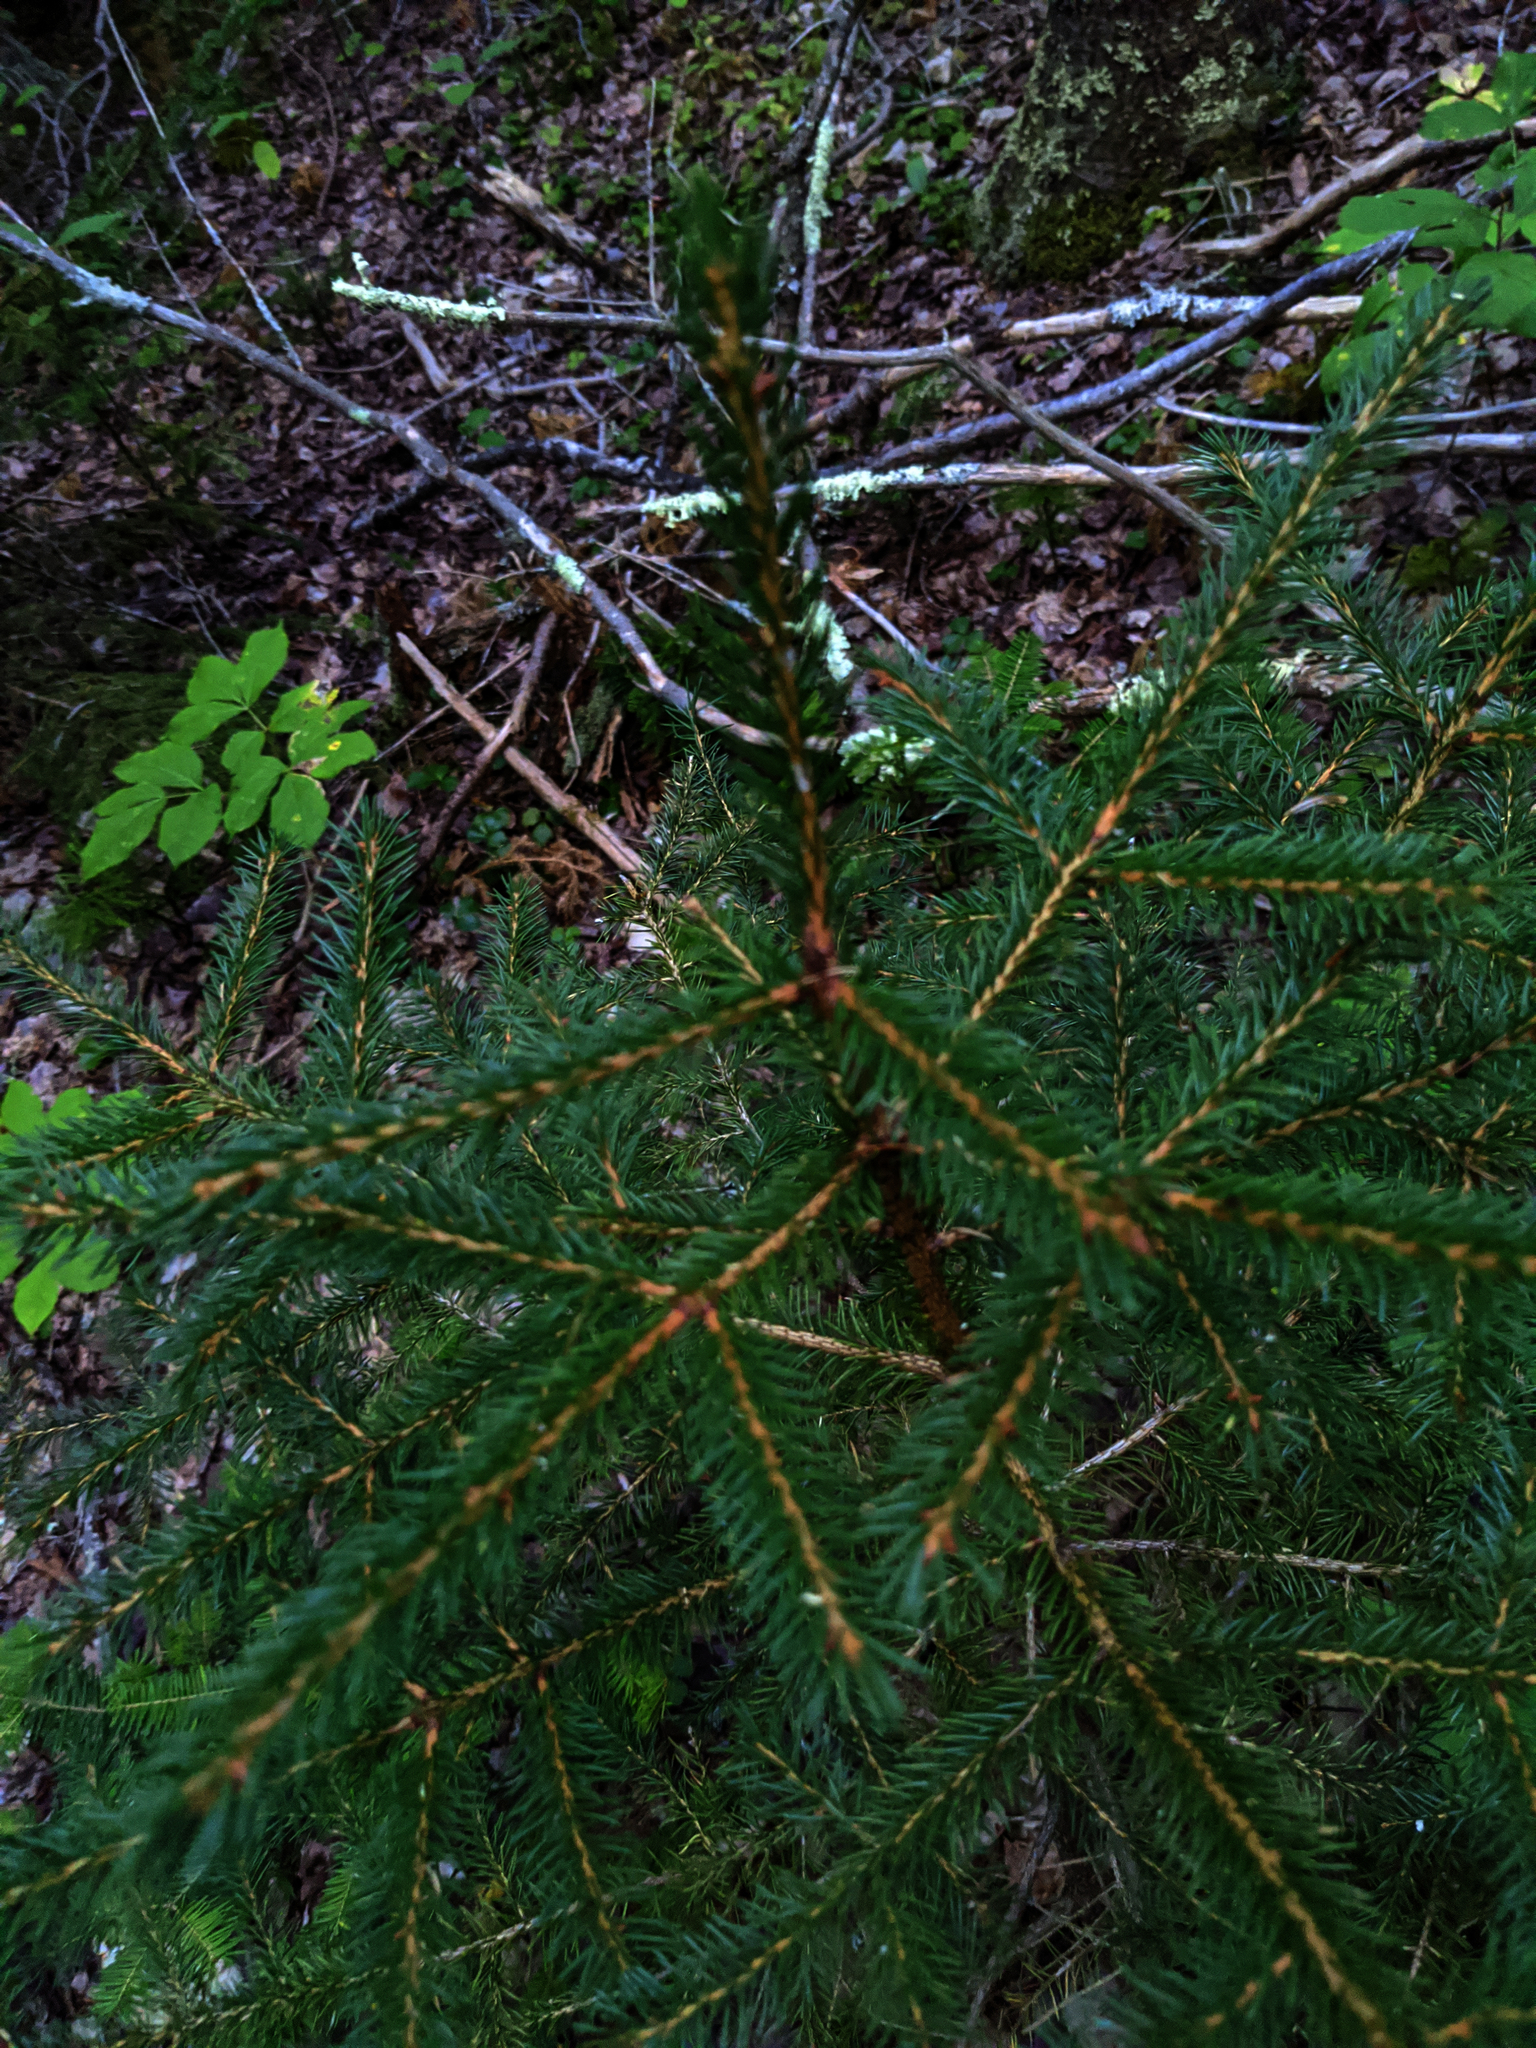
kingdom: Plantae
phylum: Tracheophyta
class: Magnoliopsida
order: Apiales
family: Araliaceae
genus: Aralia
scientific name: Aralia nudicaulis
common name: Wild sarsaparilla
